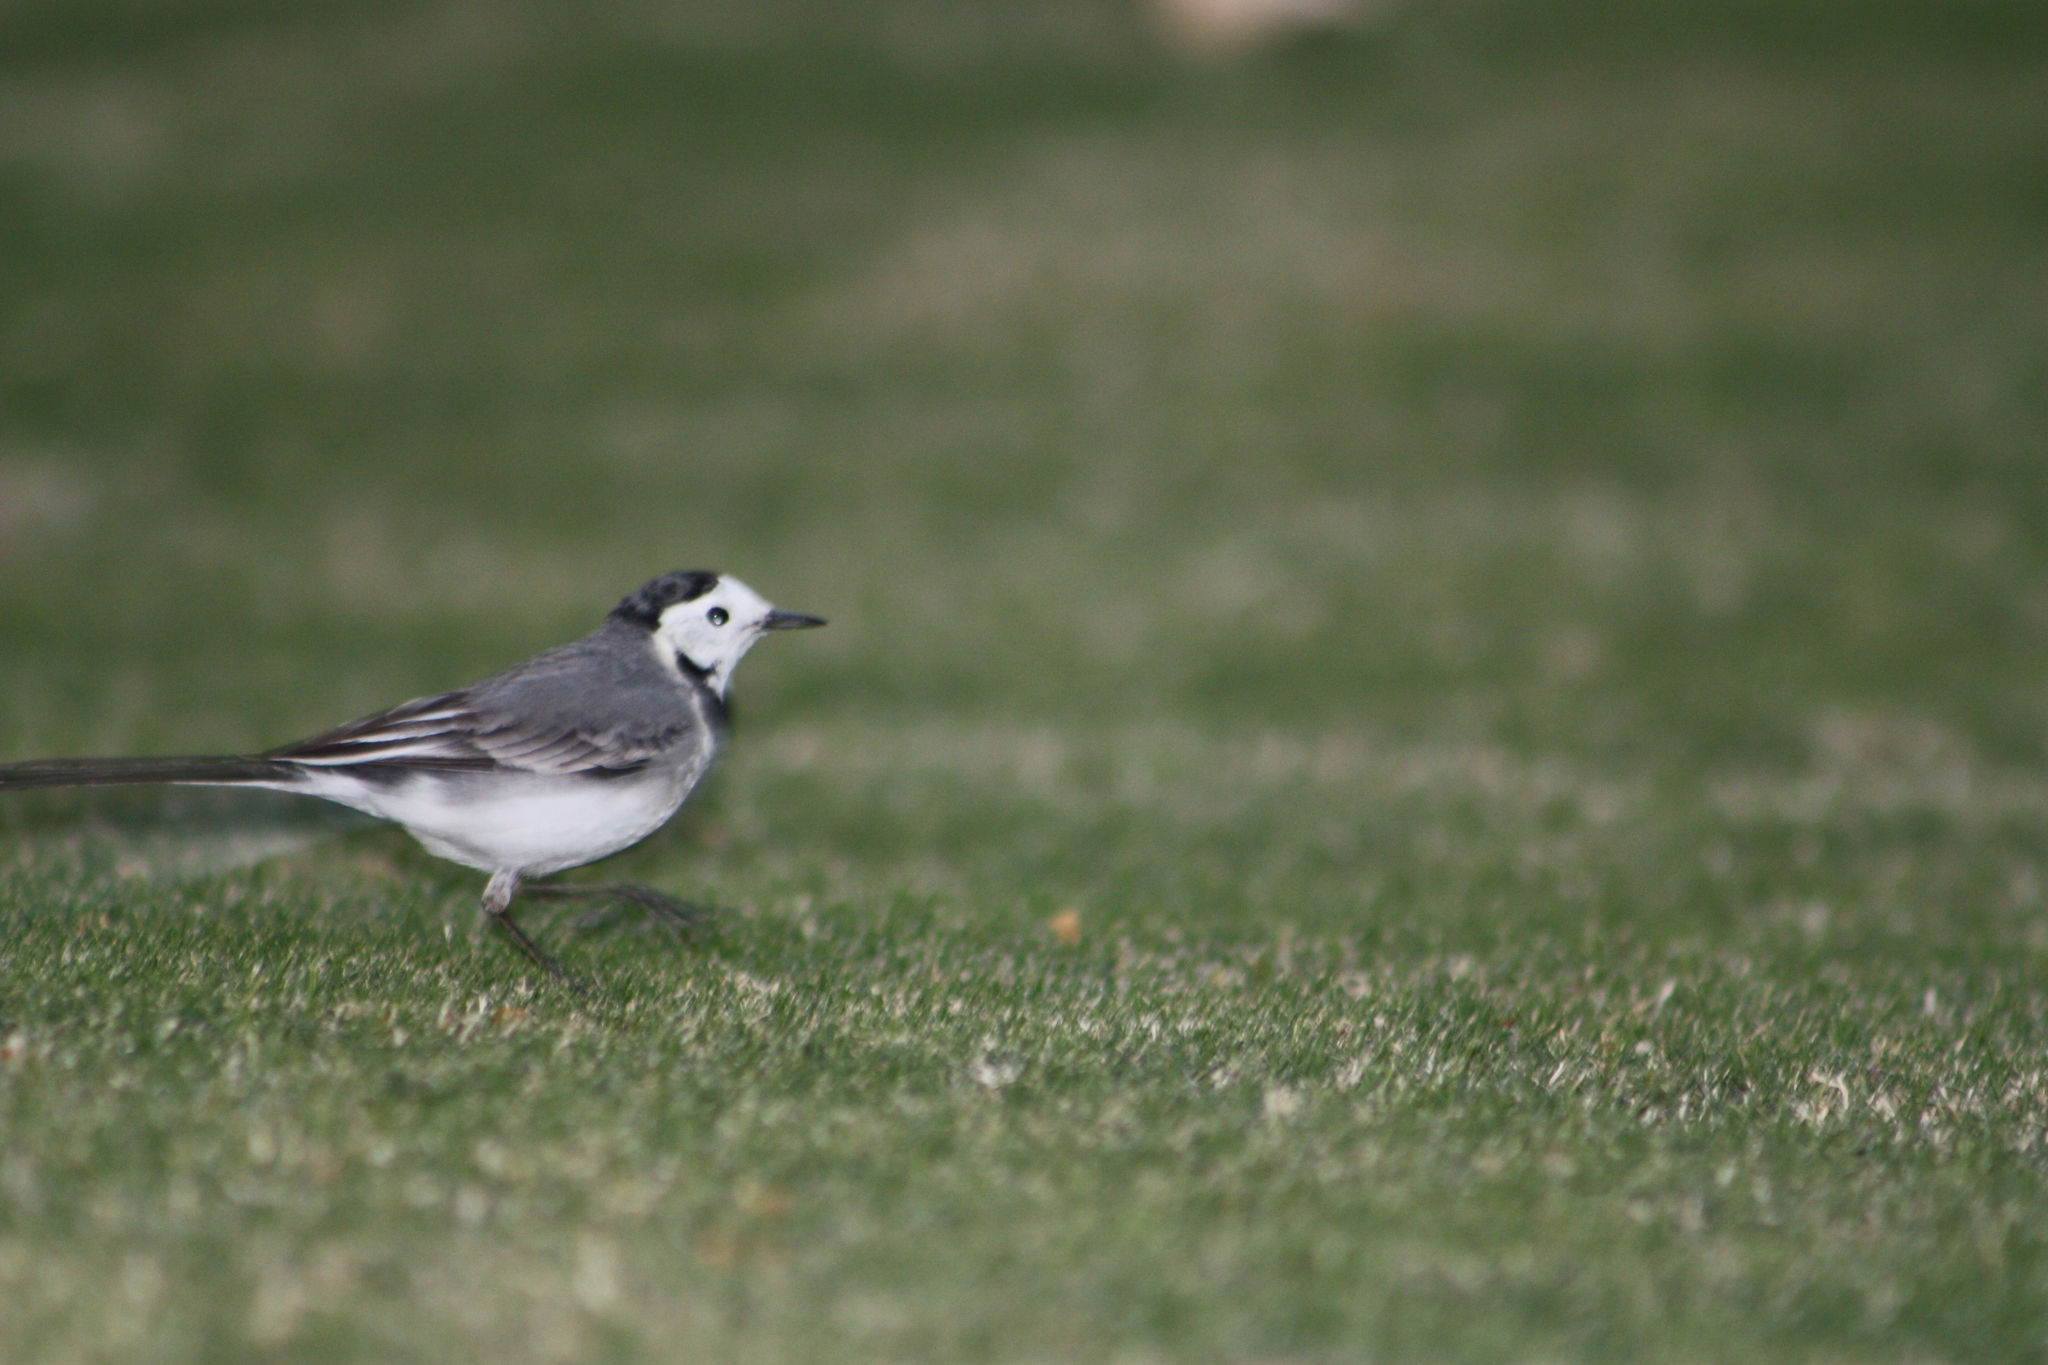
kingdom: Animalia
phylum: Chordata
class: Aves
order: Passeriformes
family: Motacillidae
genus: Motacilla
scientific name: Motacilla alba
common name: White wagtail
